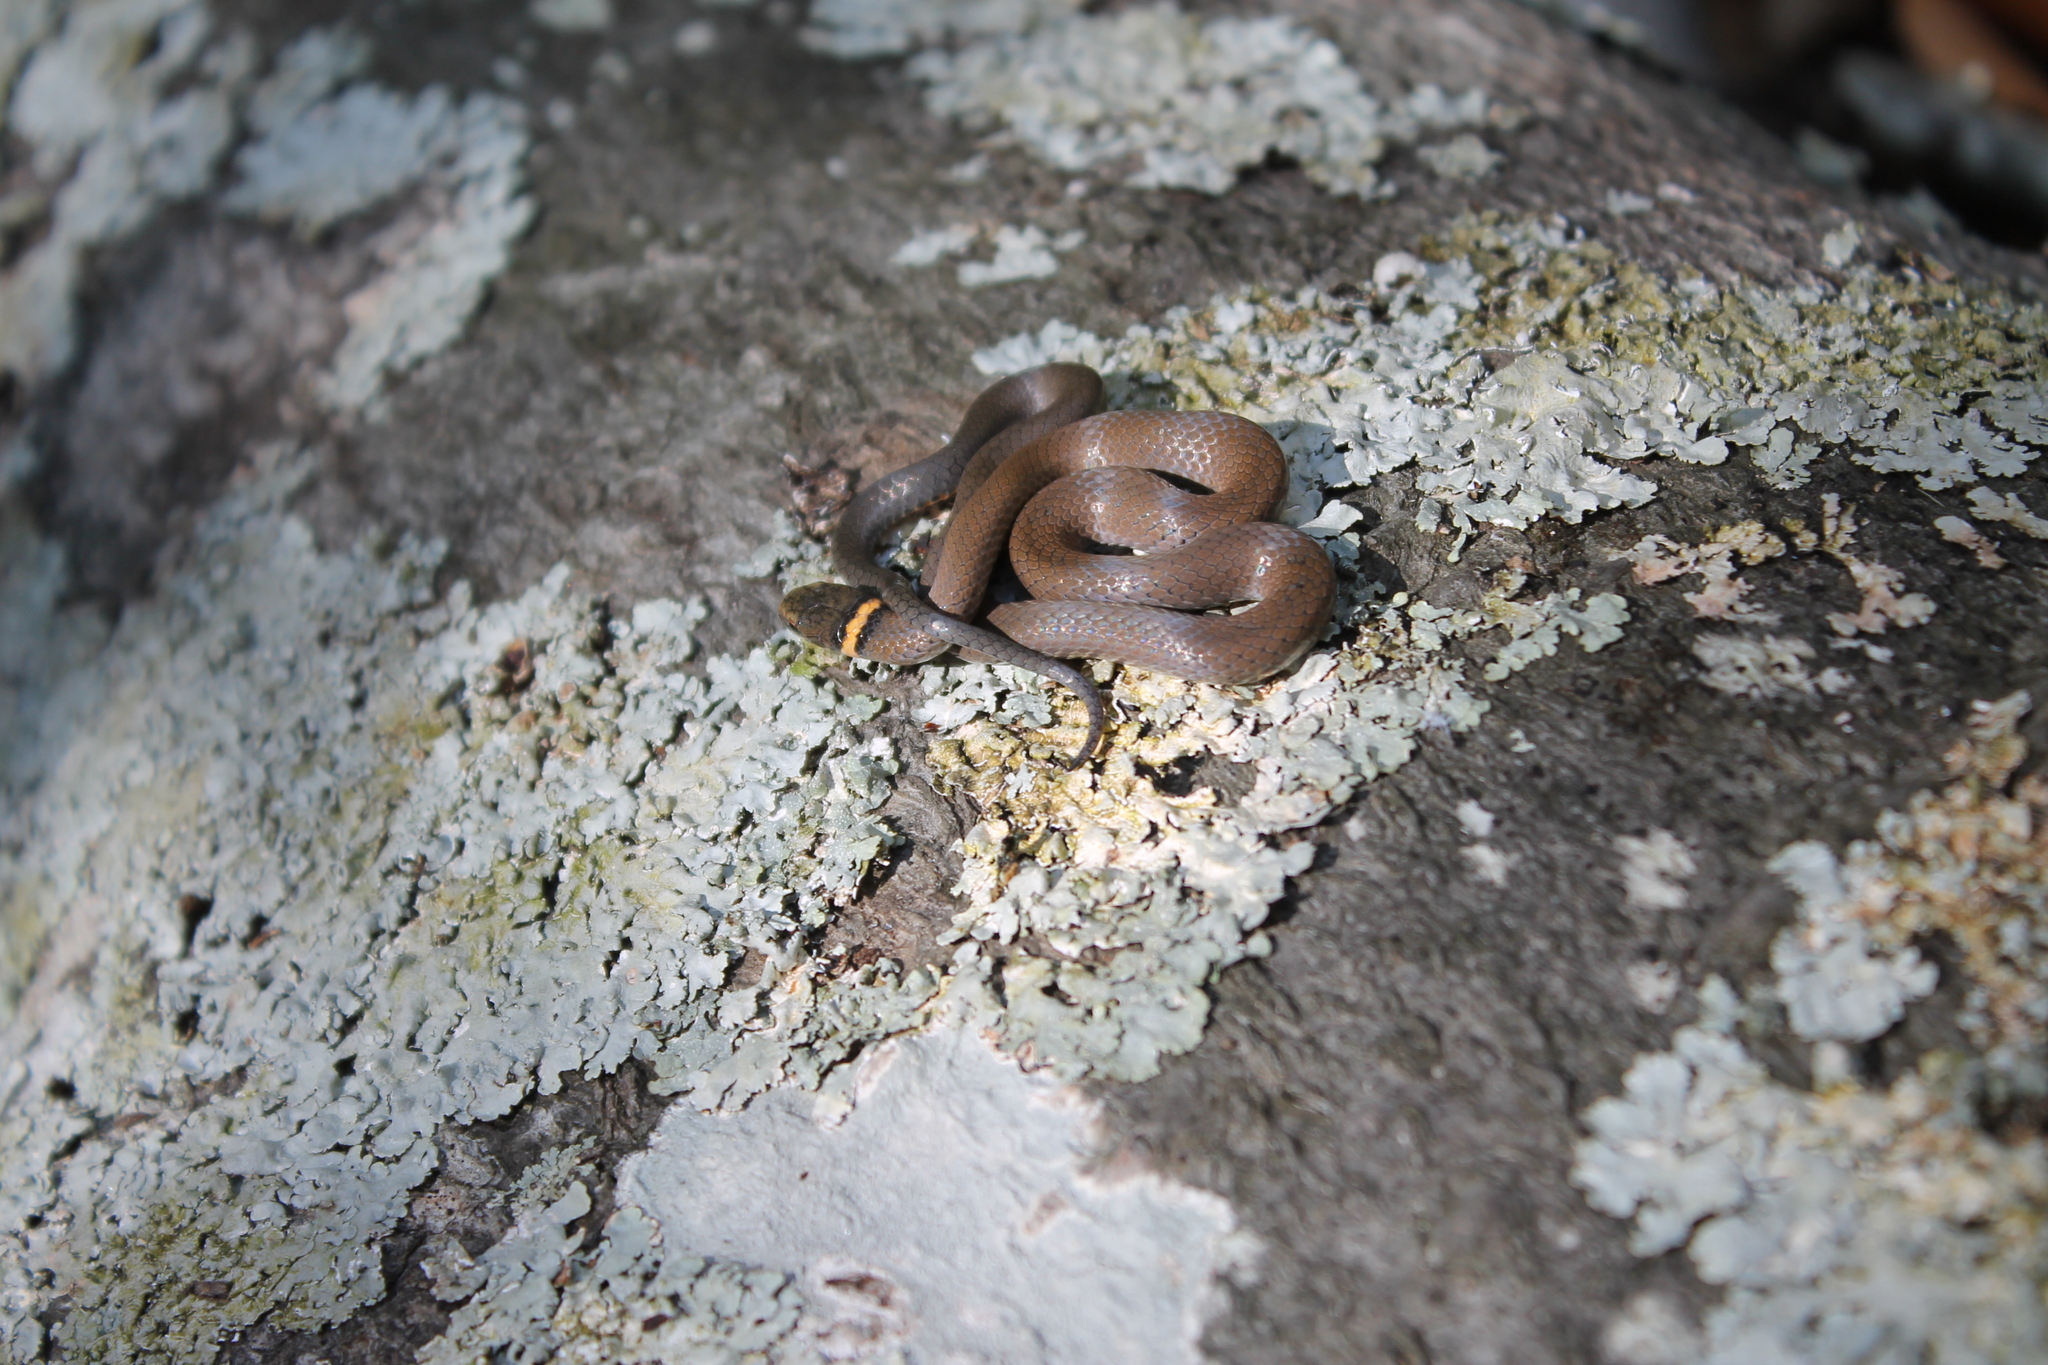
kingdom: Animalia
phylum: Chordata
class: Squamata
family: Colubridae
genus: Diadophis
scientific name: Diadophis punctatus
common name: Ringneck snake
